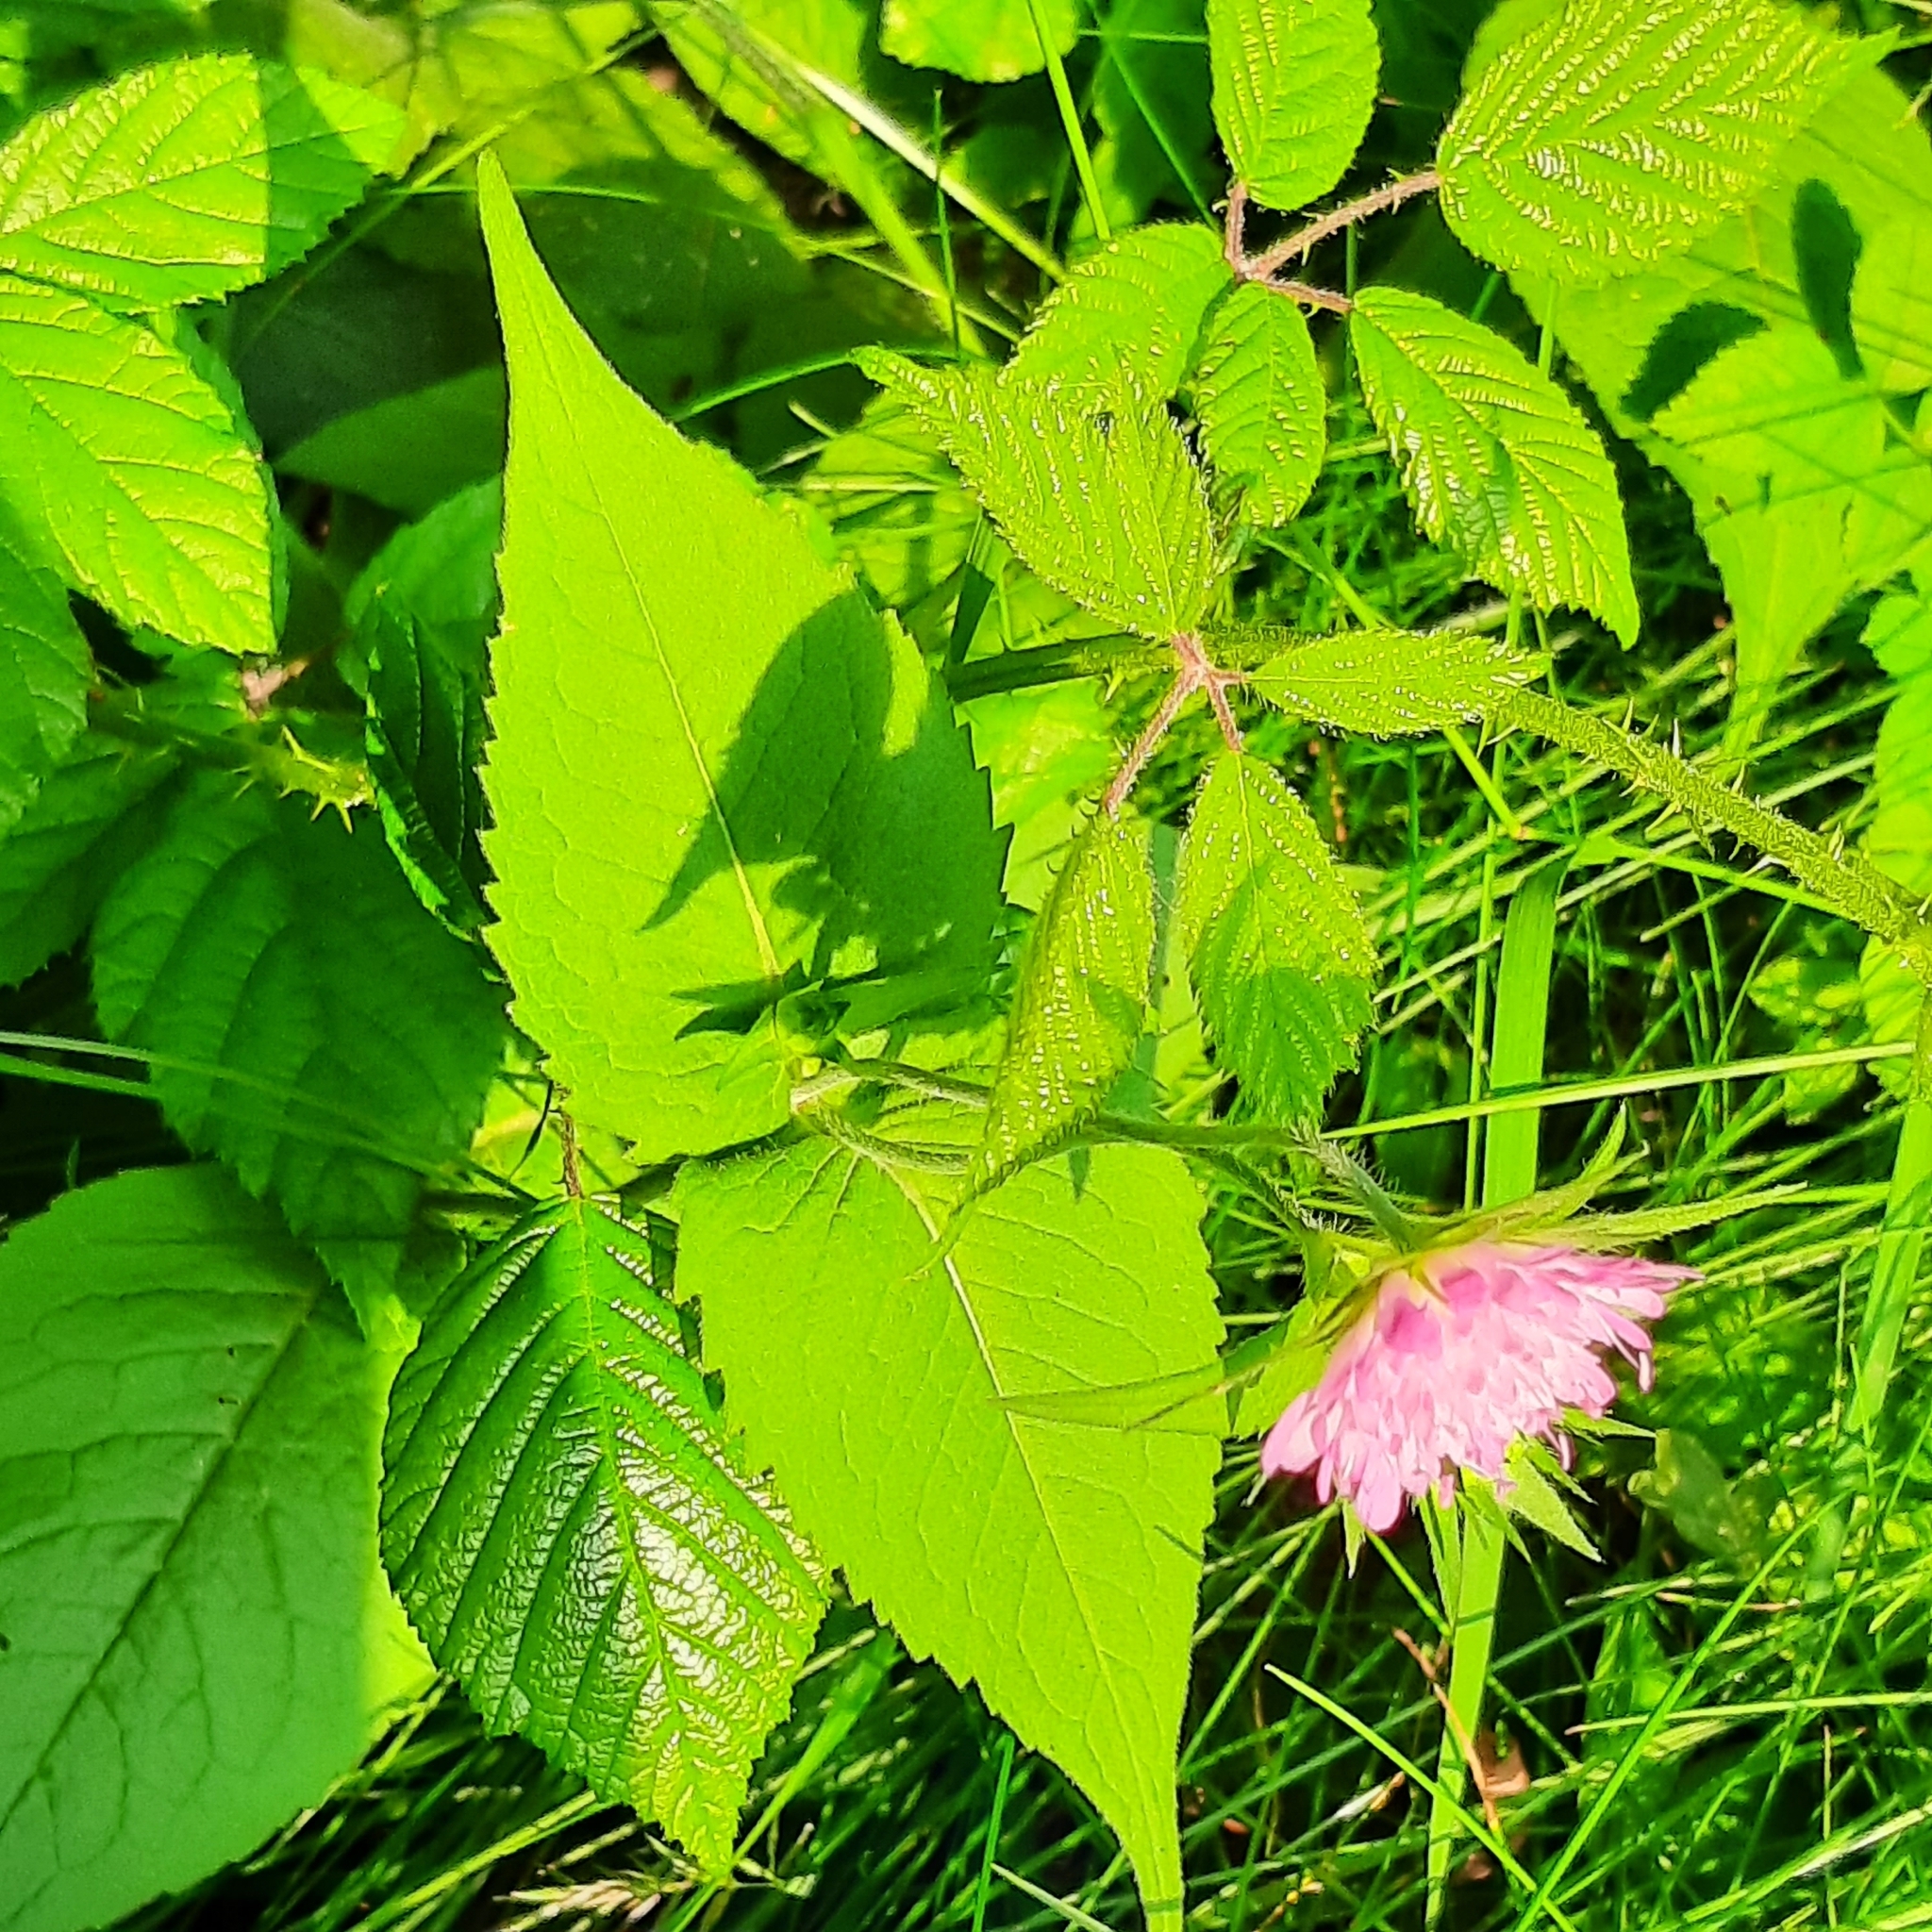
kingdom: Plantae
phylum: Tracheophyta
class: Magnoliopsida
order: Dipsacales
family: Caprifoliaceae
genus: Knautia
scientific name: Knautia arvensis
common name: Field scabiosa
